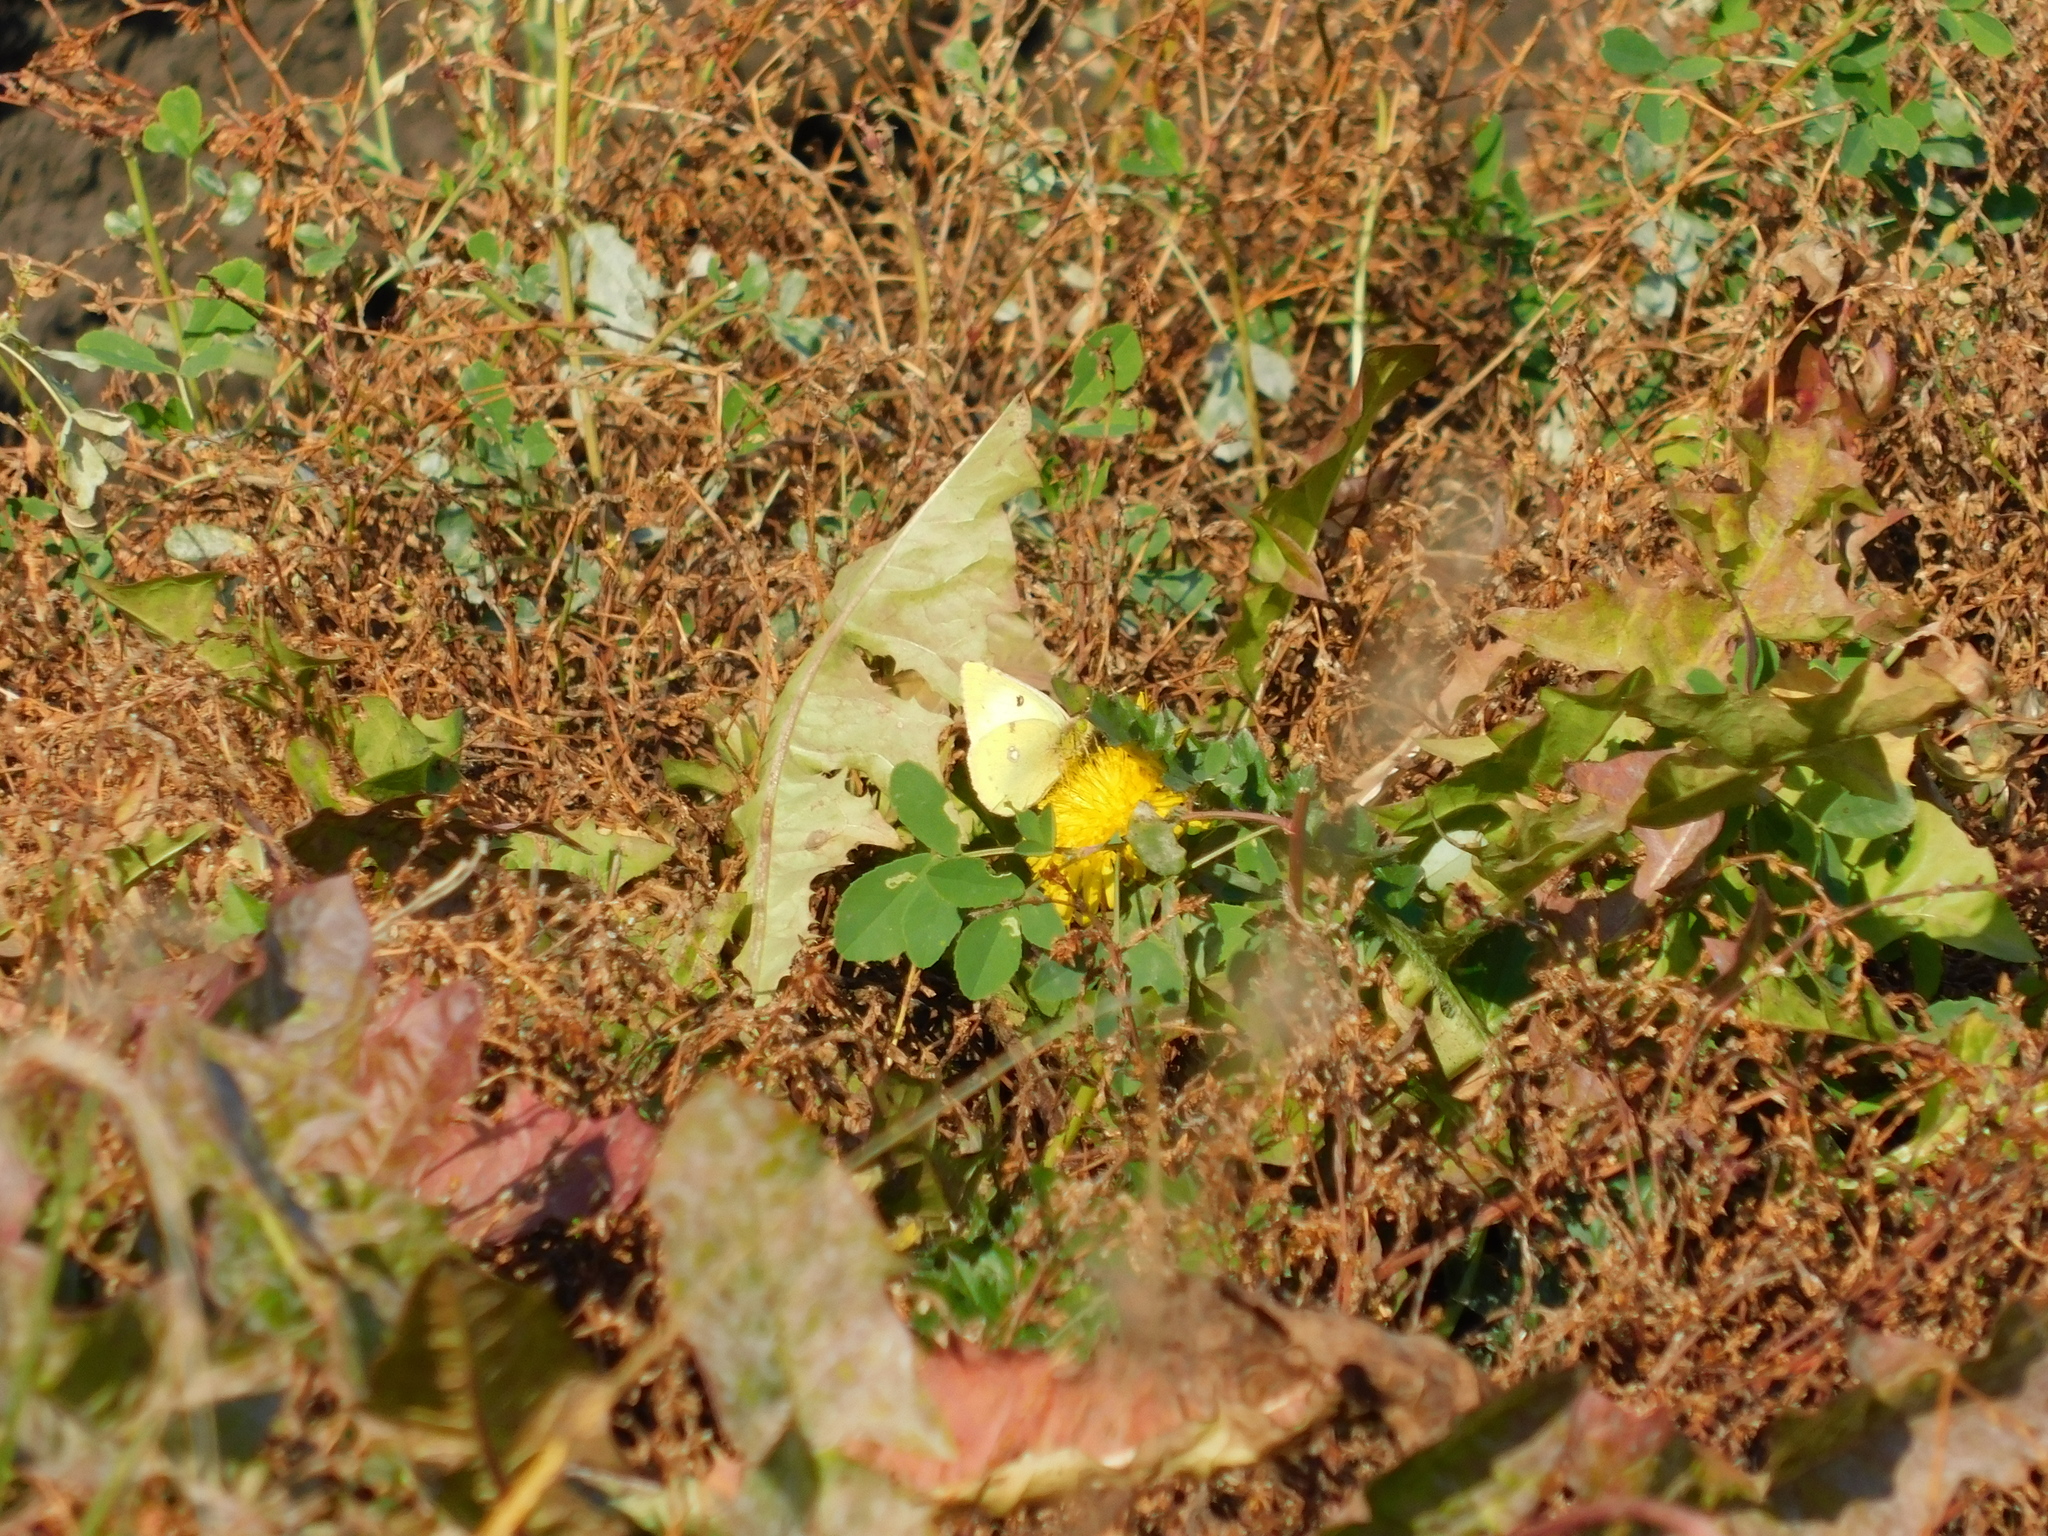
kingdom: Animalia
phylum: Arthropoda
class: Insecta
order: Lepidoptera
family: Pieridae
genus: Colias
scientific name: Colias hyale
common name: Pale clouded yellow
